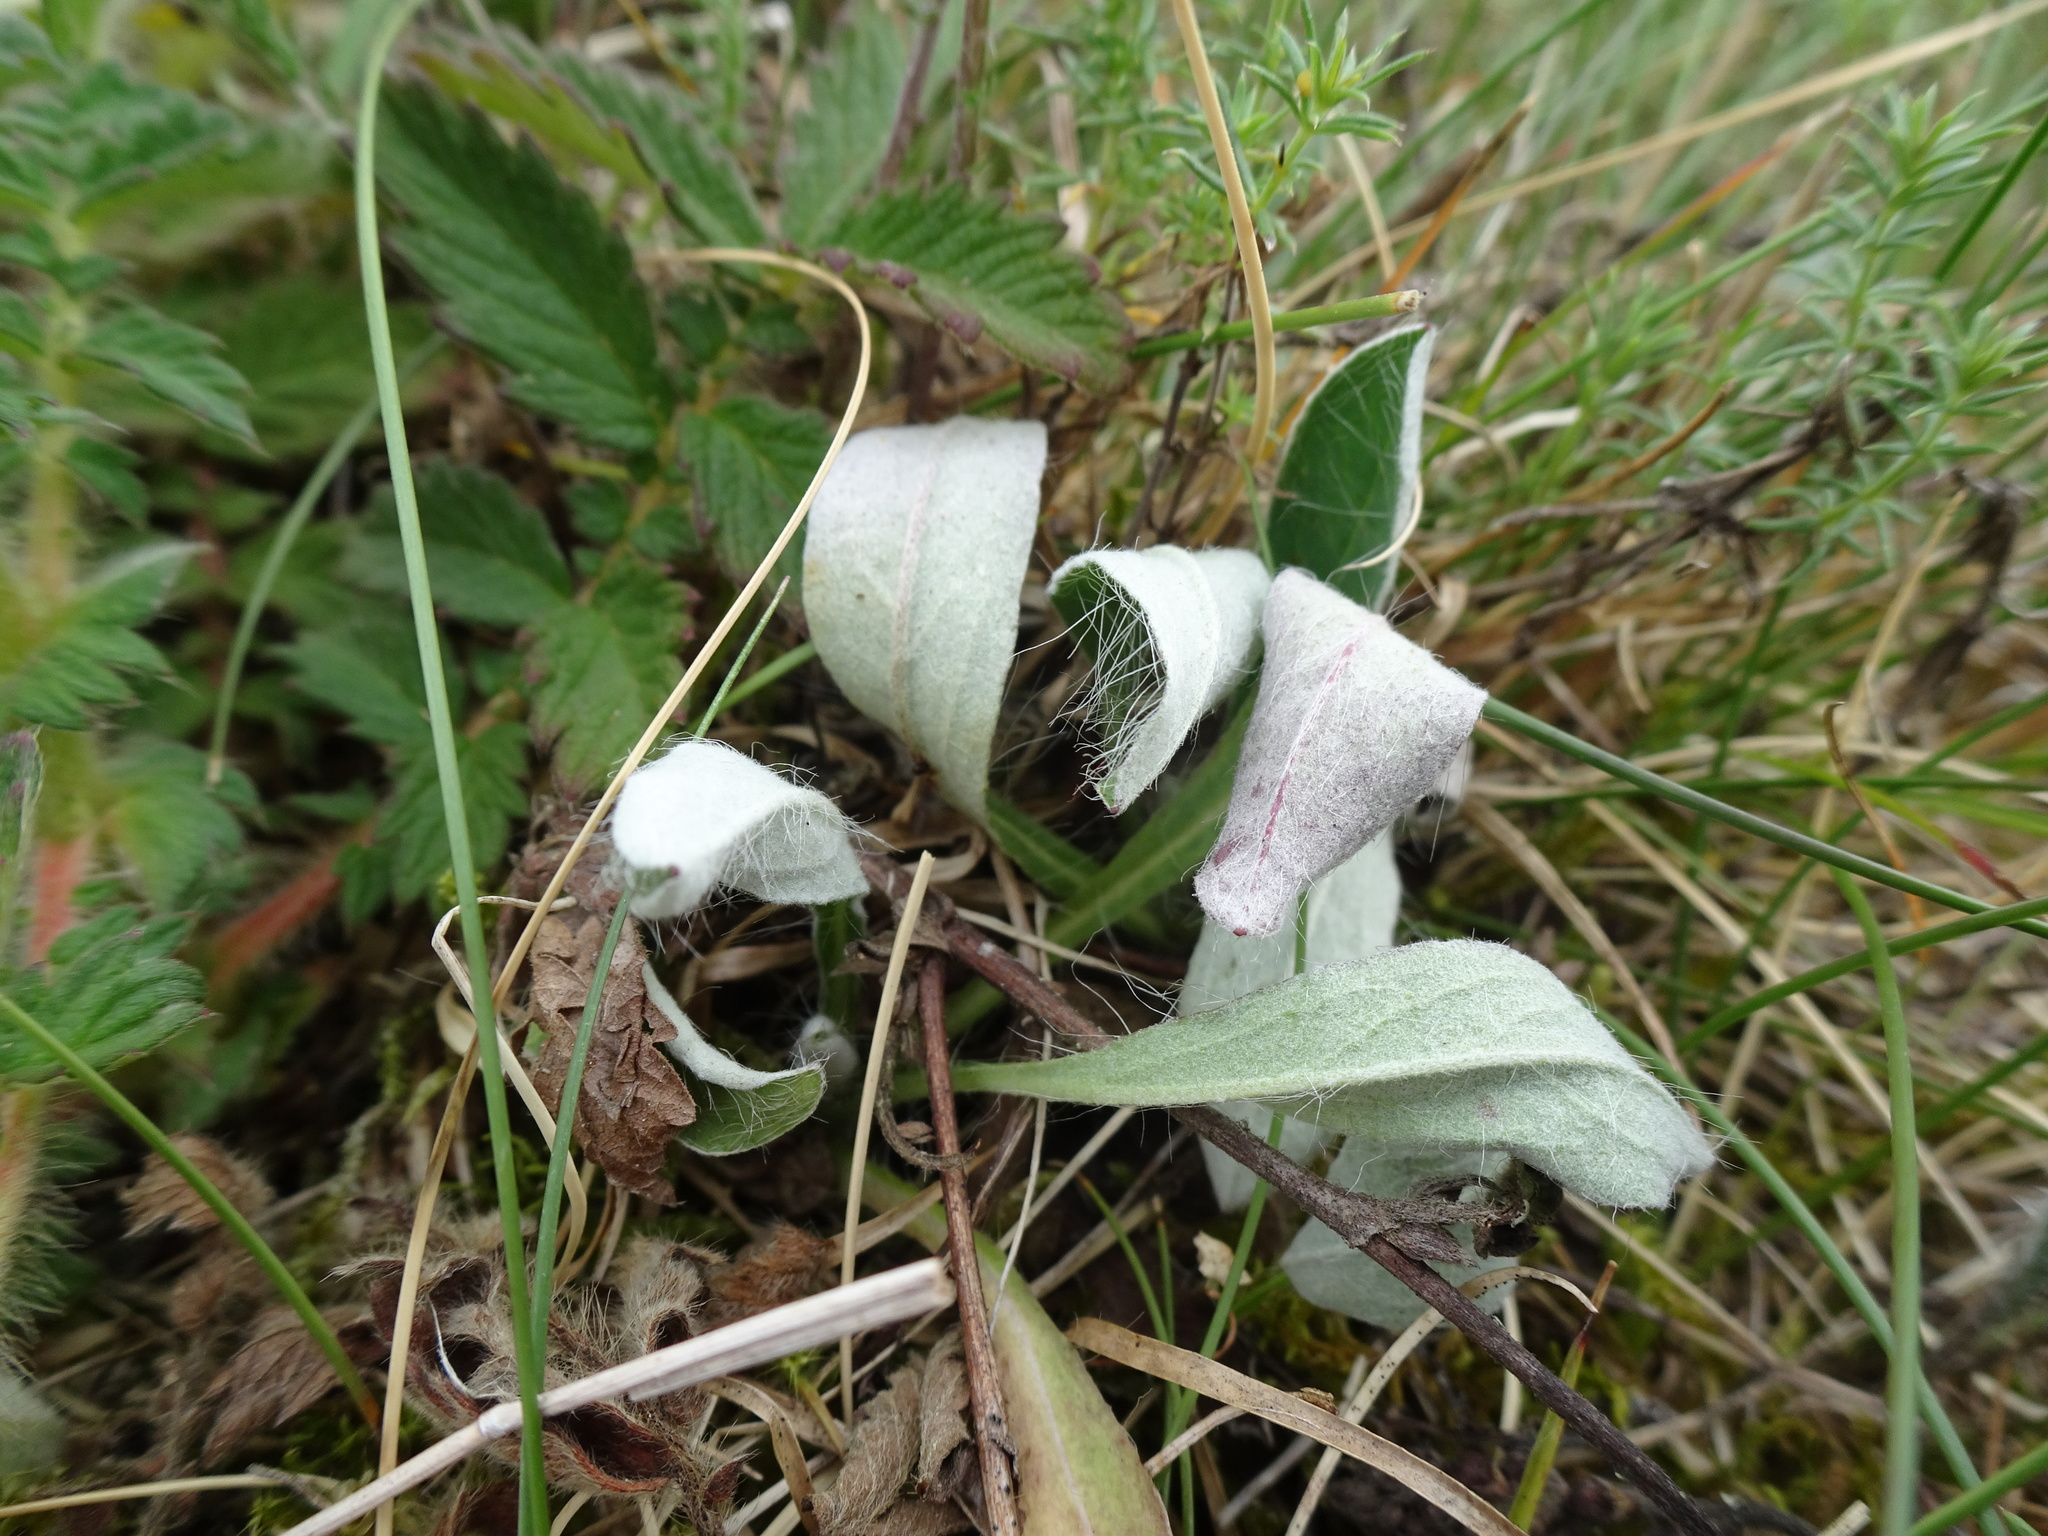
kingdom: Plantae
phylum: Tracheophyta
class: Magnoliopsida
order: Asterales
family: Asteraceae
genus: Pilosella
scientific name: Pilosella officinarum
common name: Mouse-ear hawkweed
